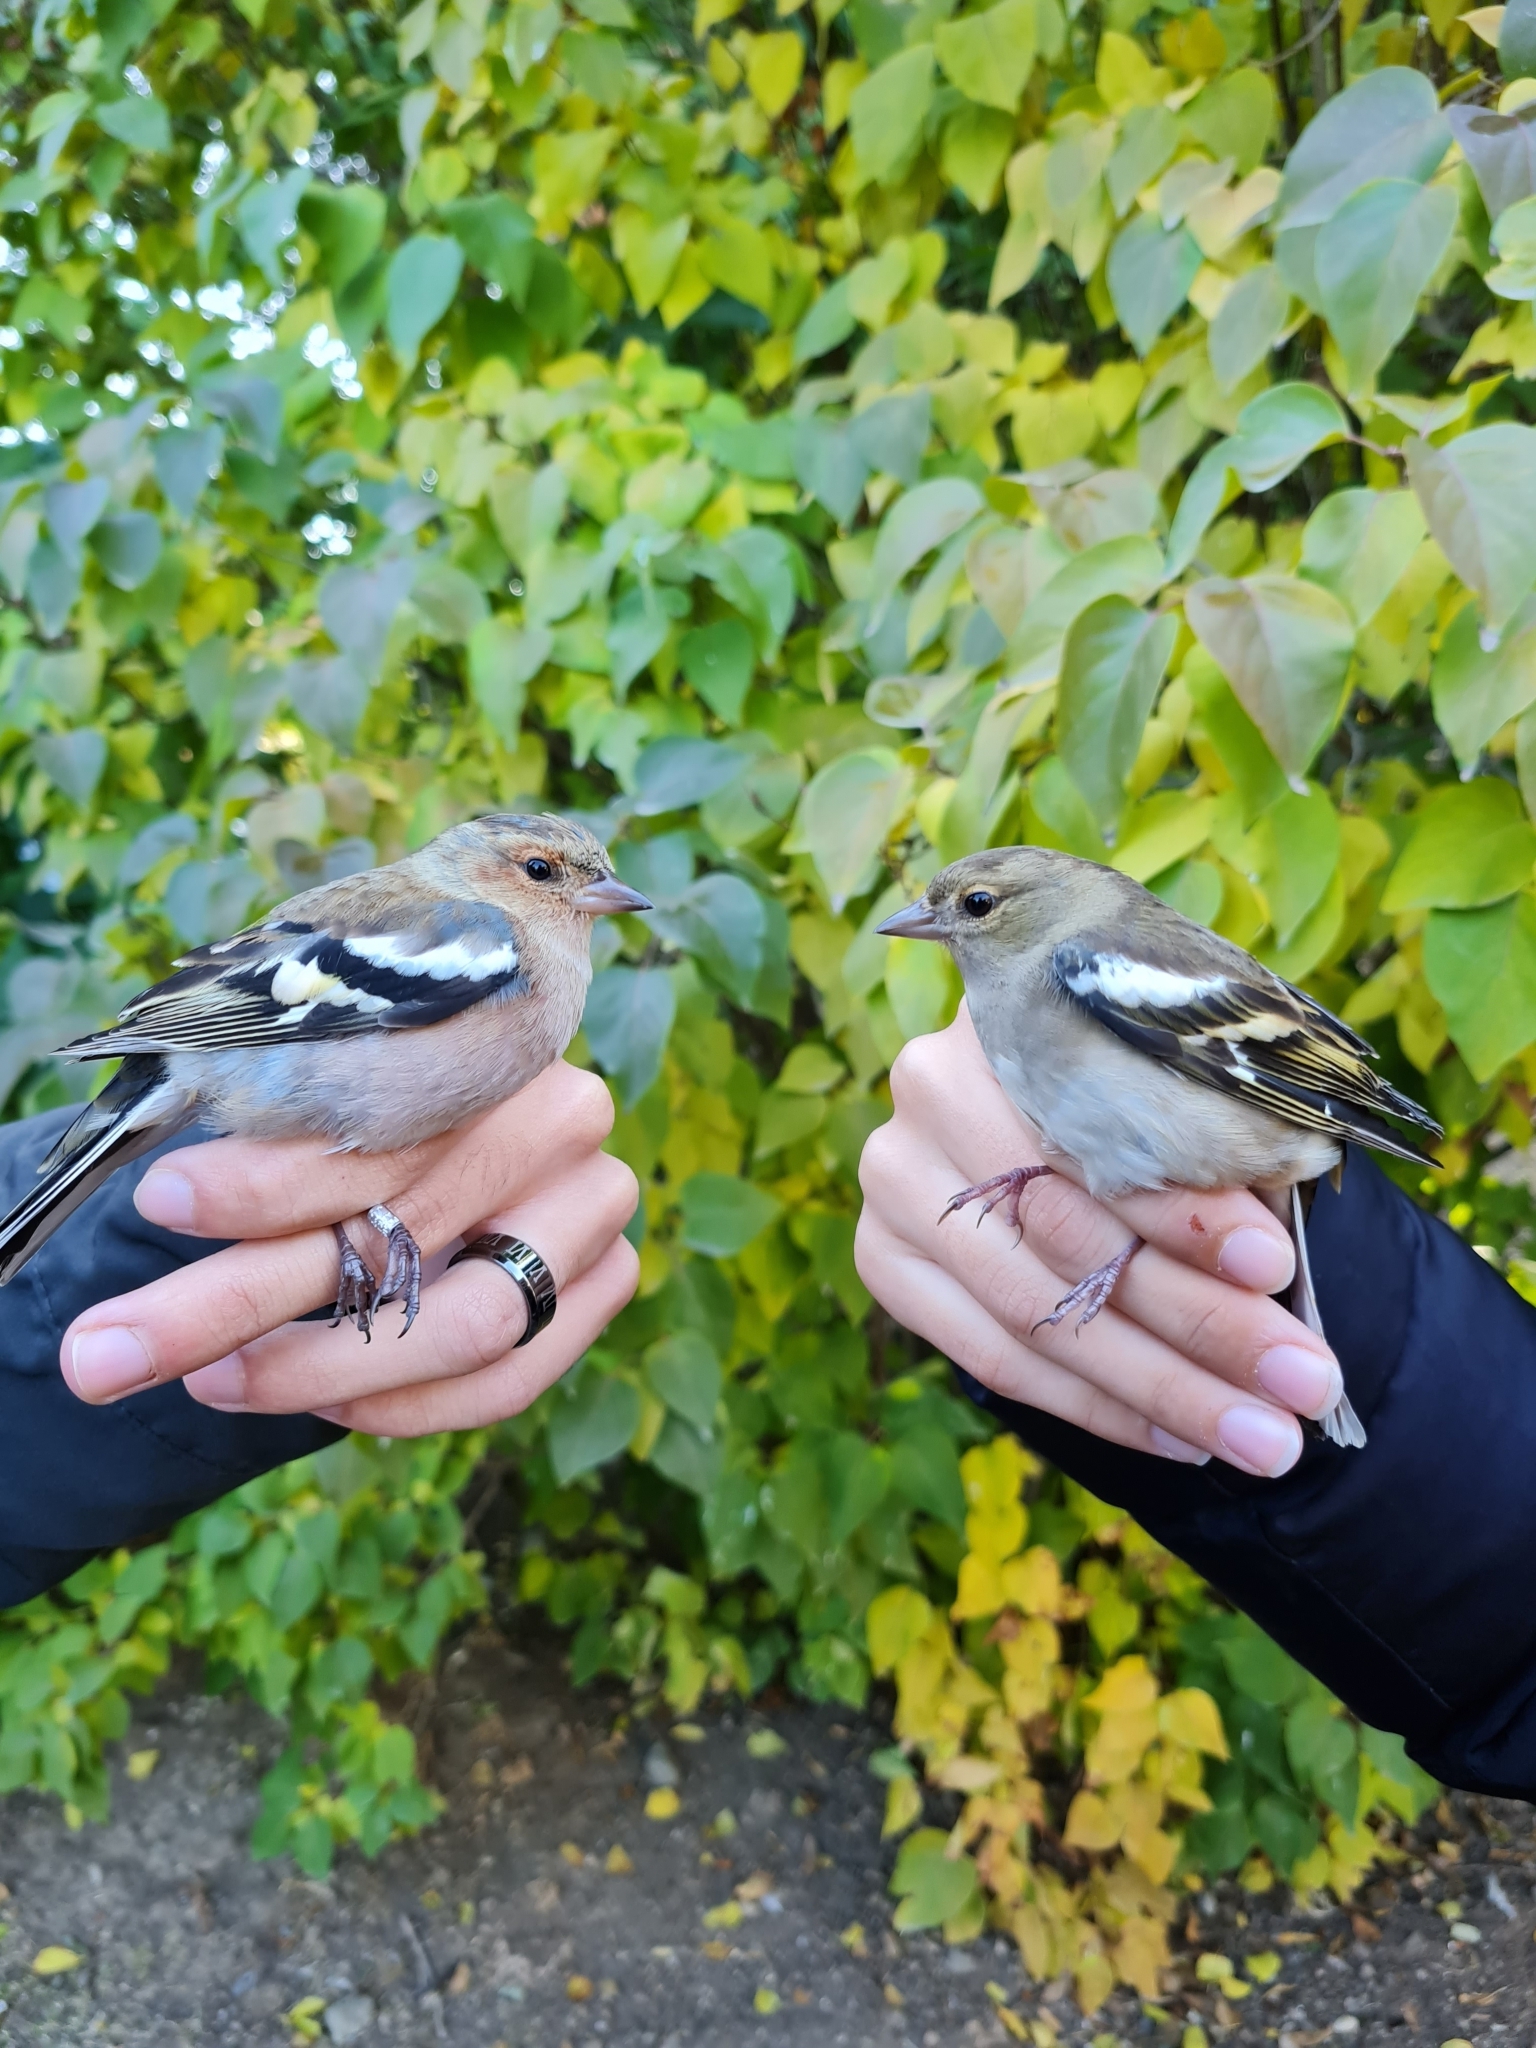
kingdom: Animalia
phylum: Chordata
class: Aves
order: Passeriformes
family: Fringillidae
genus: Fringilla
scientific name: Fringilla coelebs
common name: Common chaffinch
